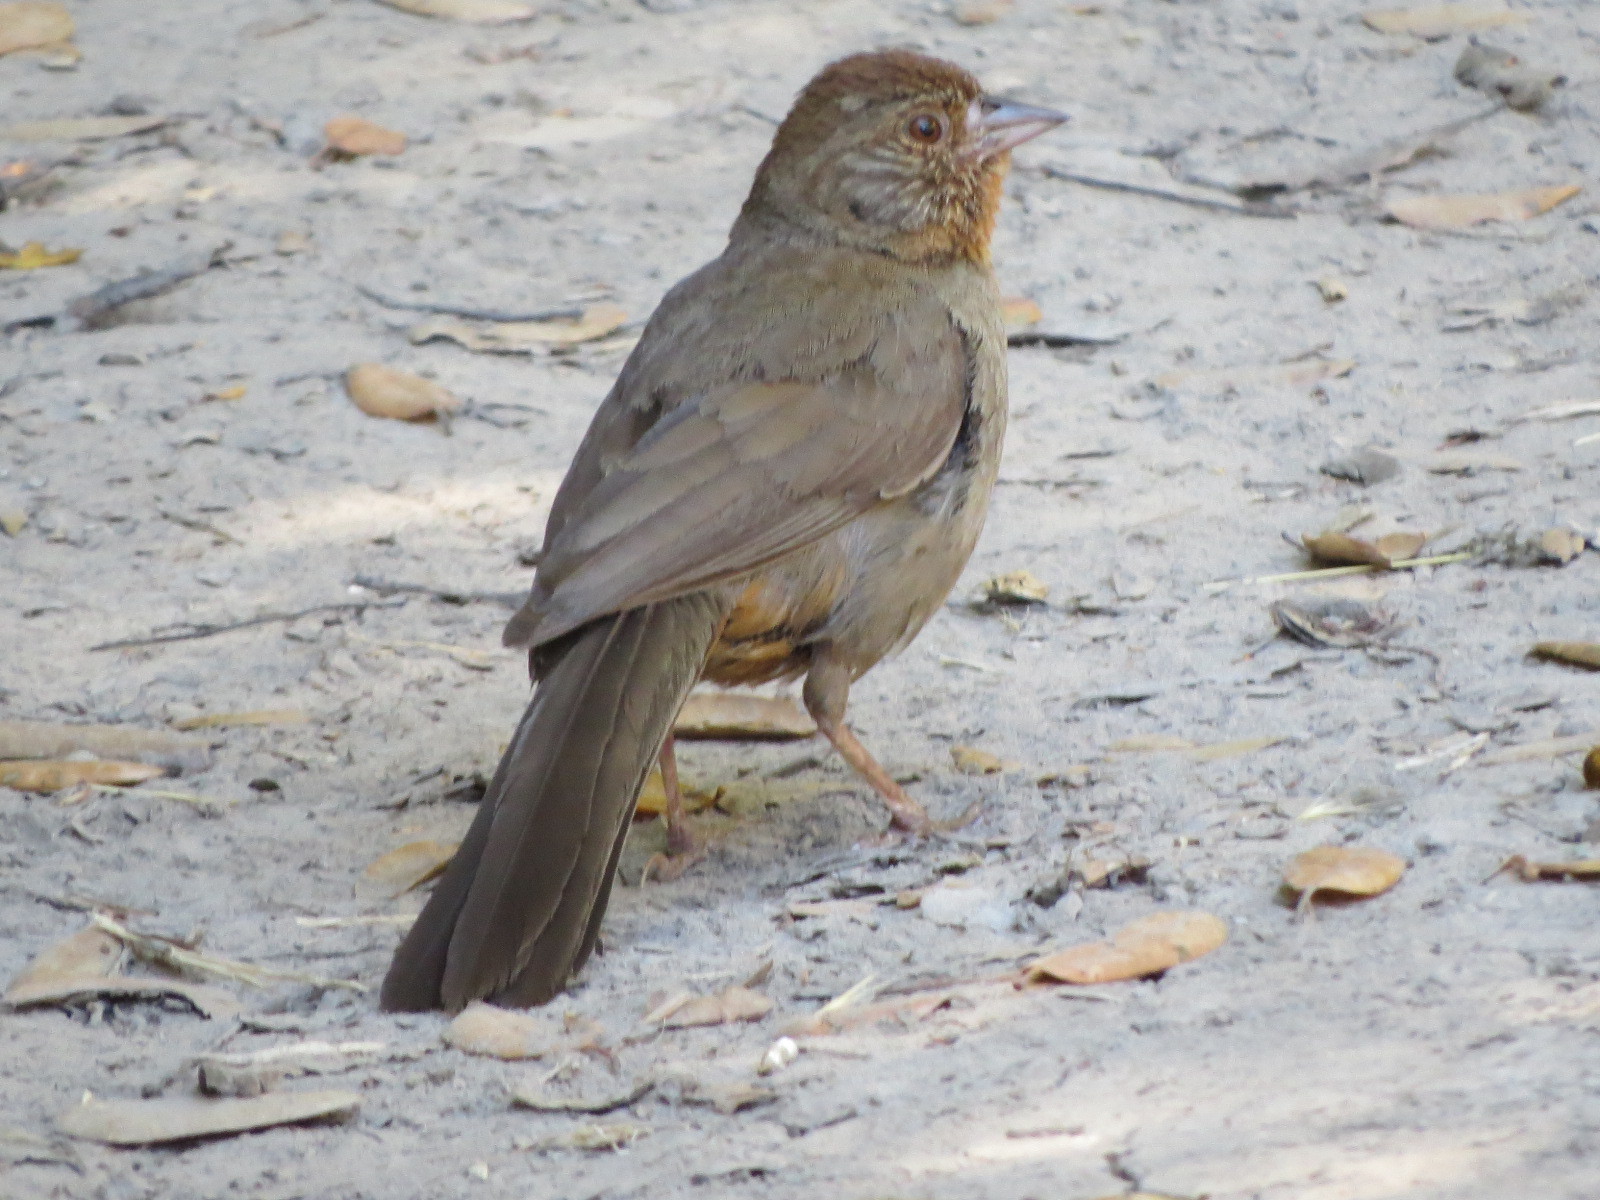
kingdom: Animalia
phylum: Chordata
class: Aves
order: Passeriformes
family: Passerellidae
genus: Melozone
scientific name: Melozone crissalis
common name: California towhee
